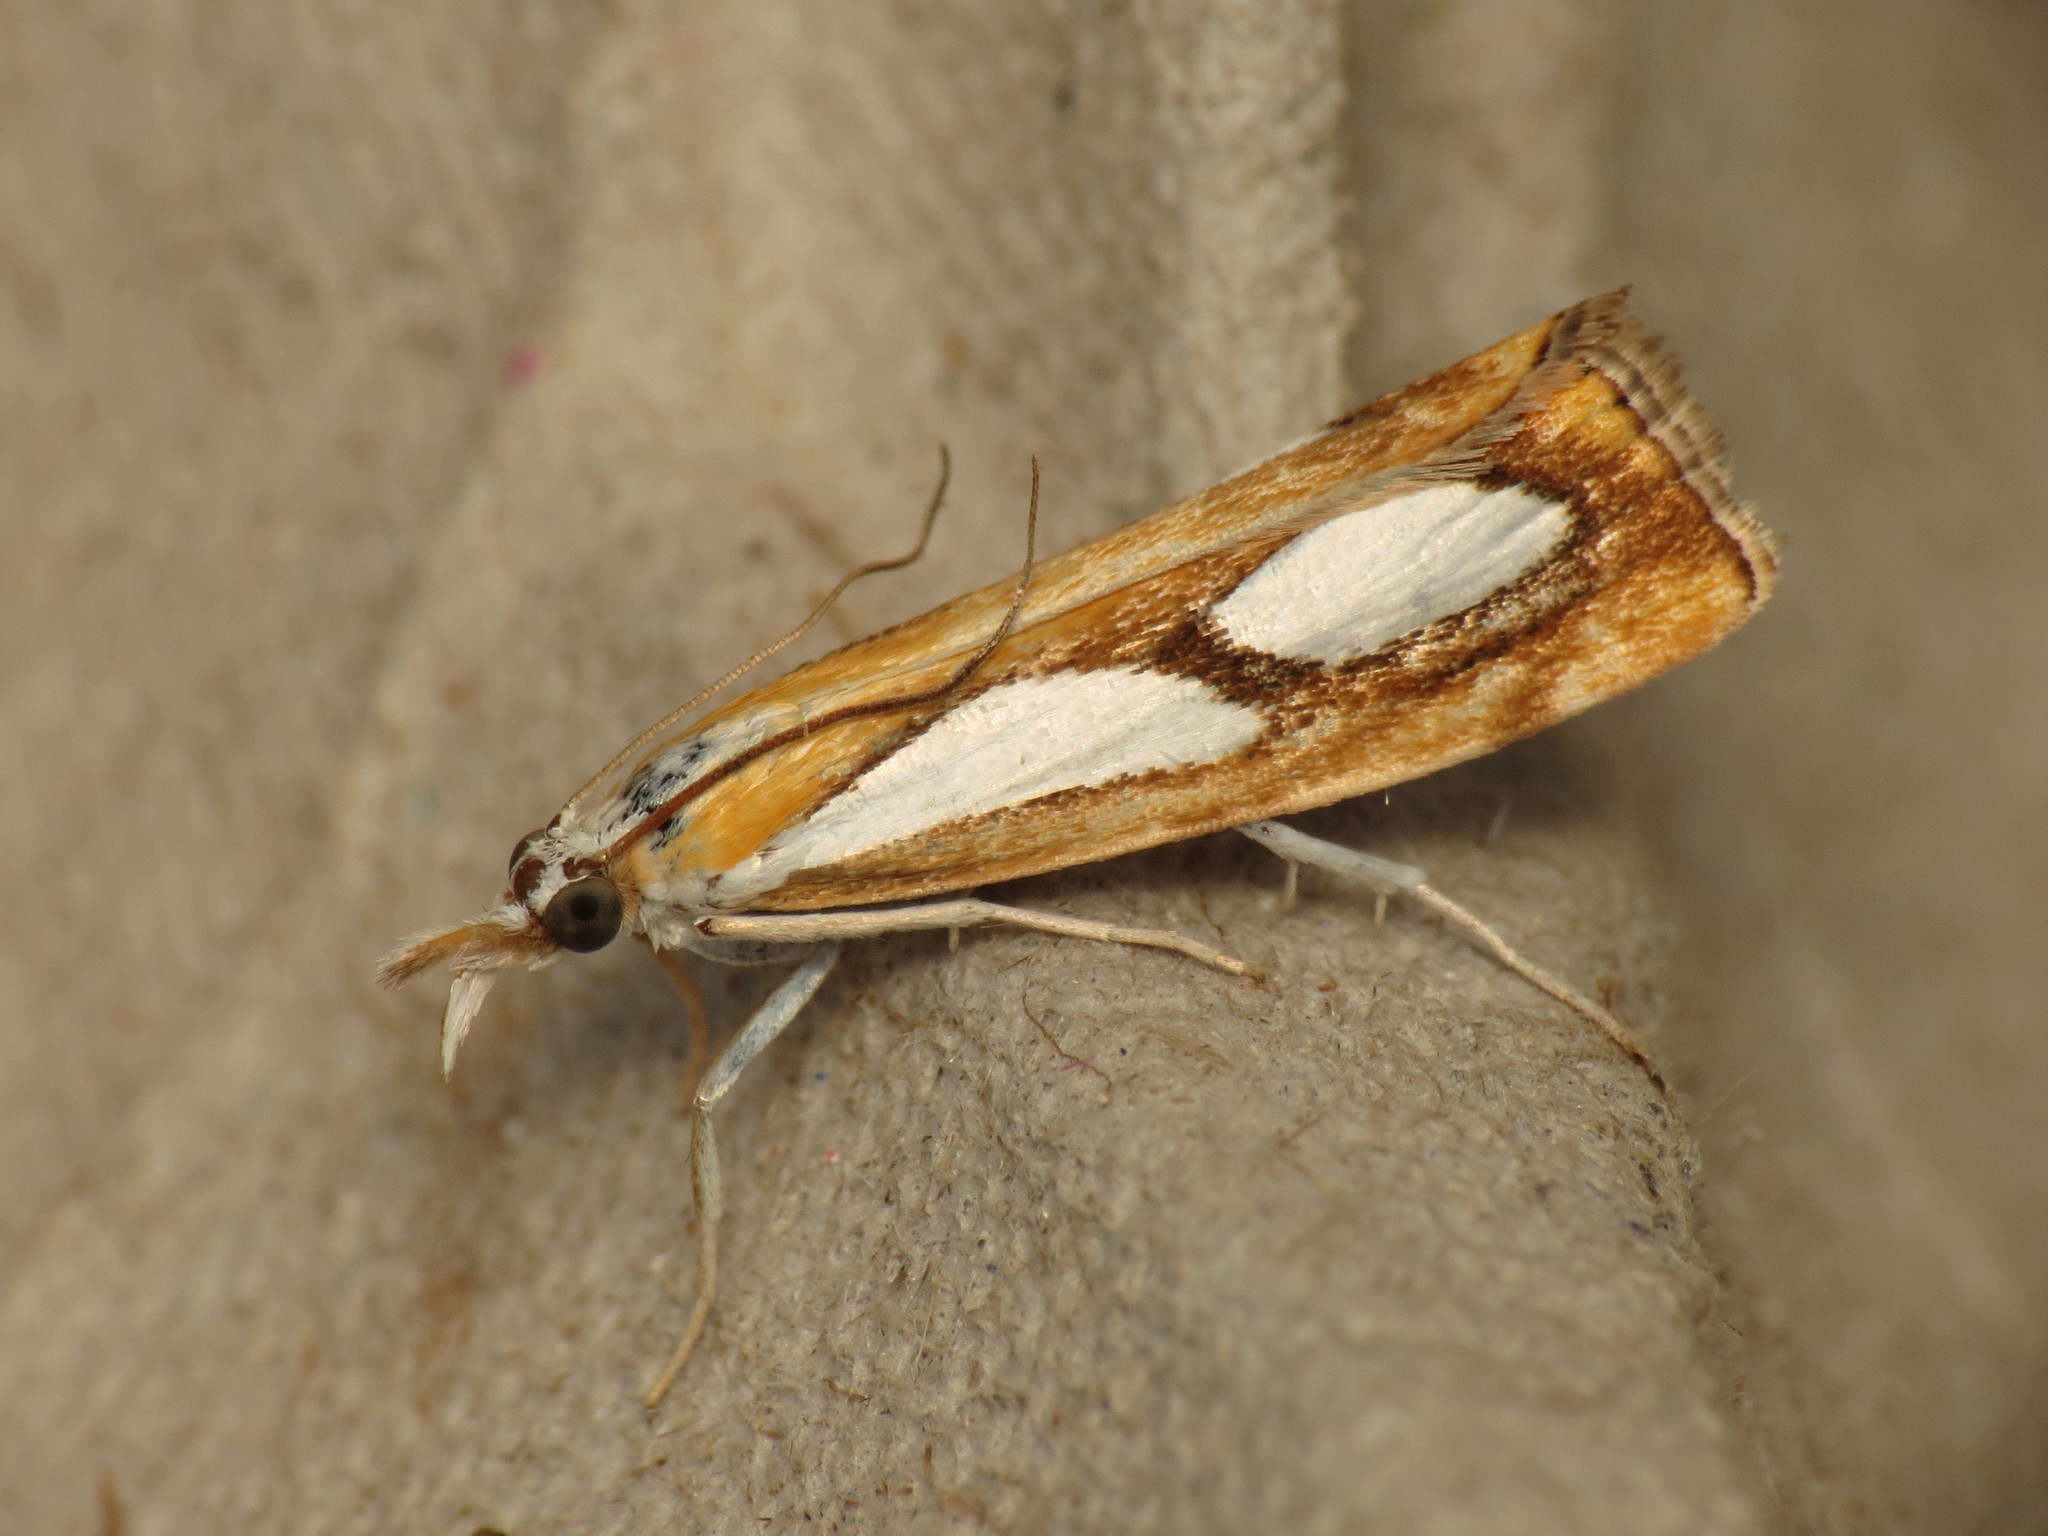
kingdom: Animalia
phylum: Arthropoda
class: Insecta
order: Lepidoptera
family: Crambidae
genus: Catoptria
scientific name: Catoptria pinella
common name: Pearl grass-veneer
